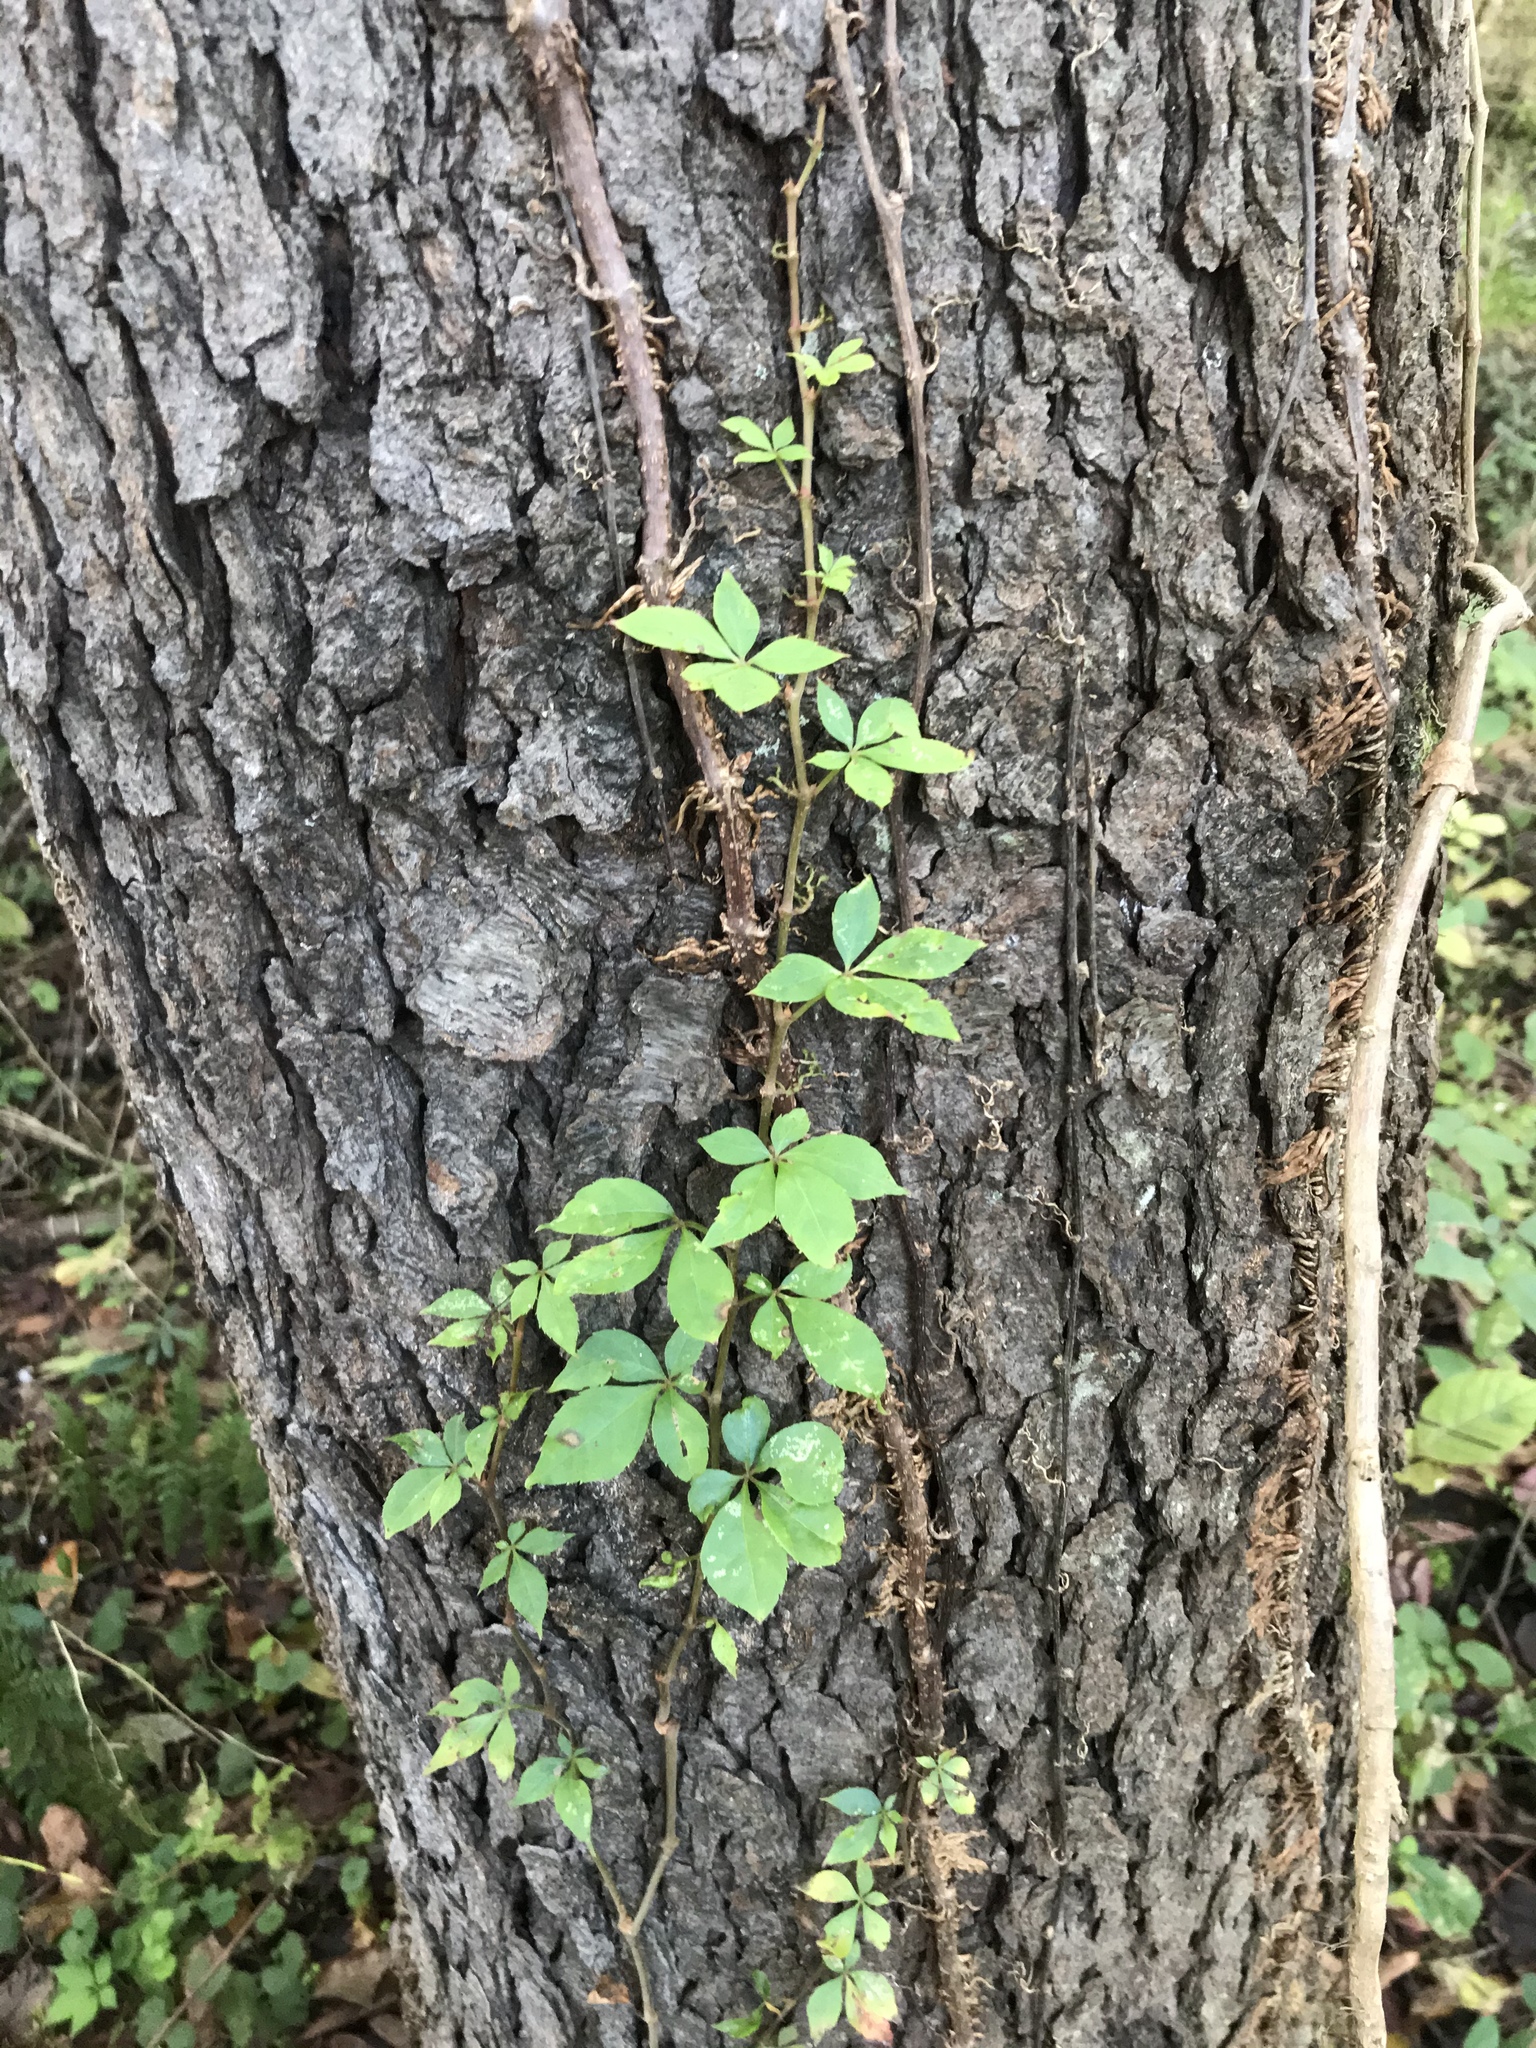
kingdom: Plantae
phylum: Tracheophyta
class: Magnoliopsida
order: Vitales
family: Vitaceae
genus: Parthenocissus
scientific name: Parthenocissus quinquefolia
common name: Virginia-creeper
